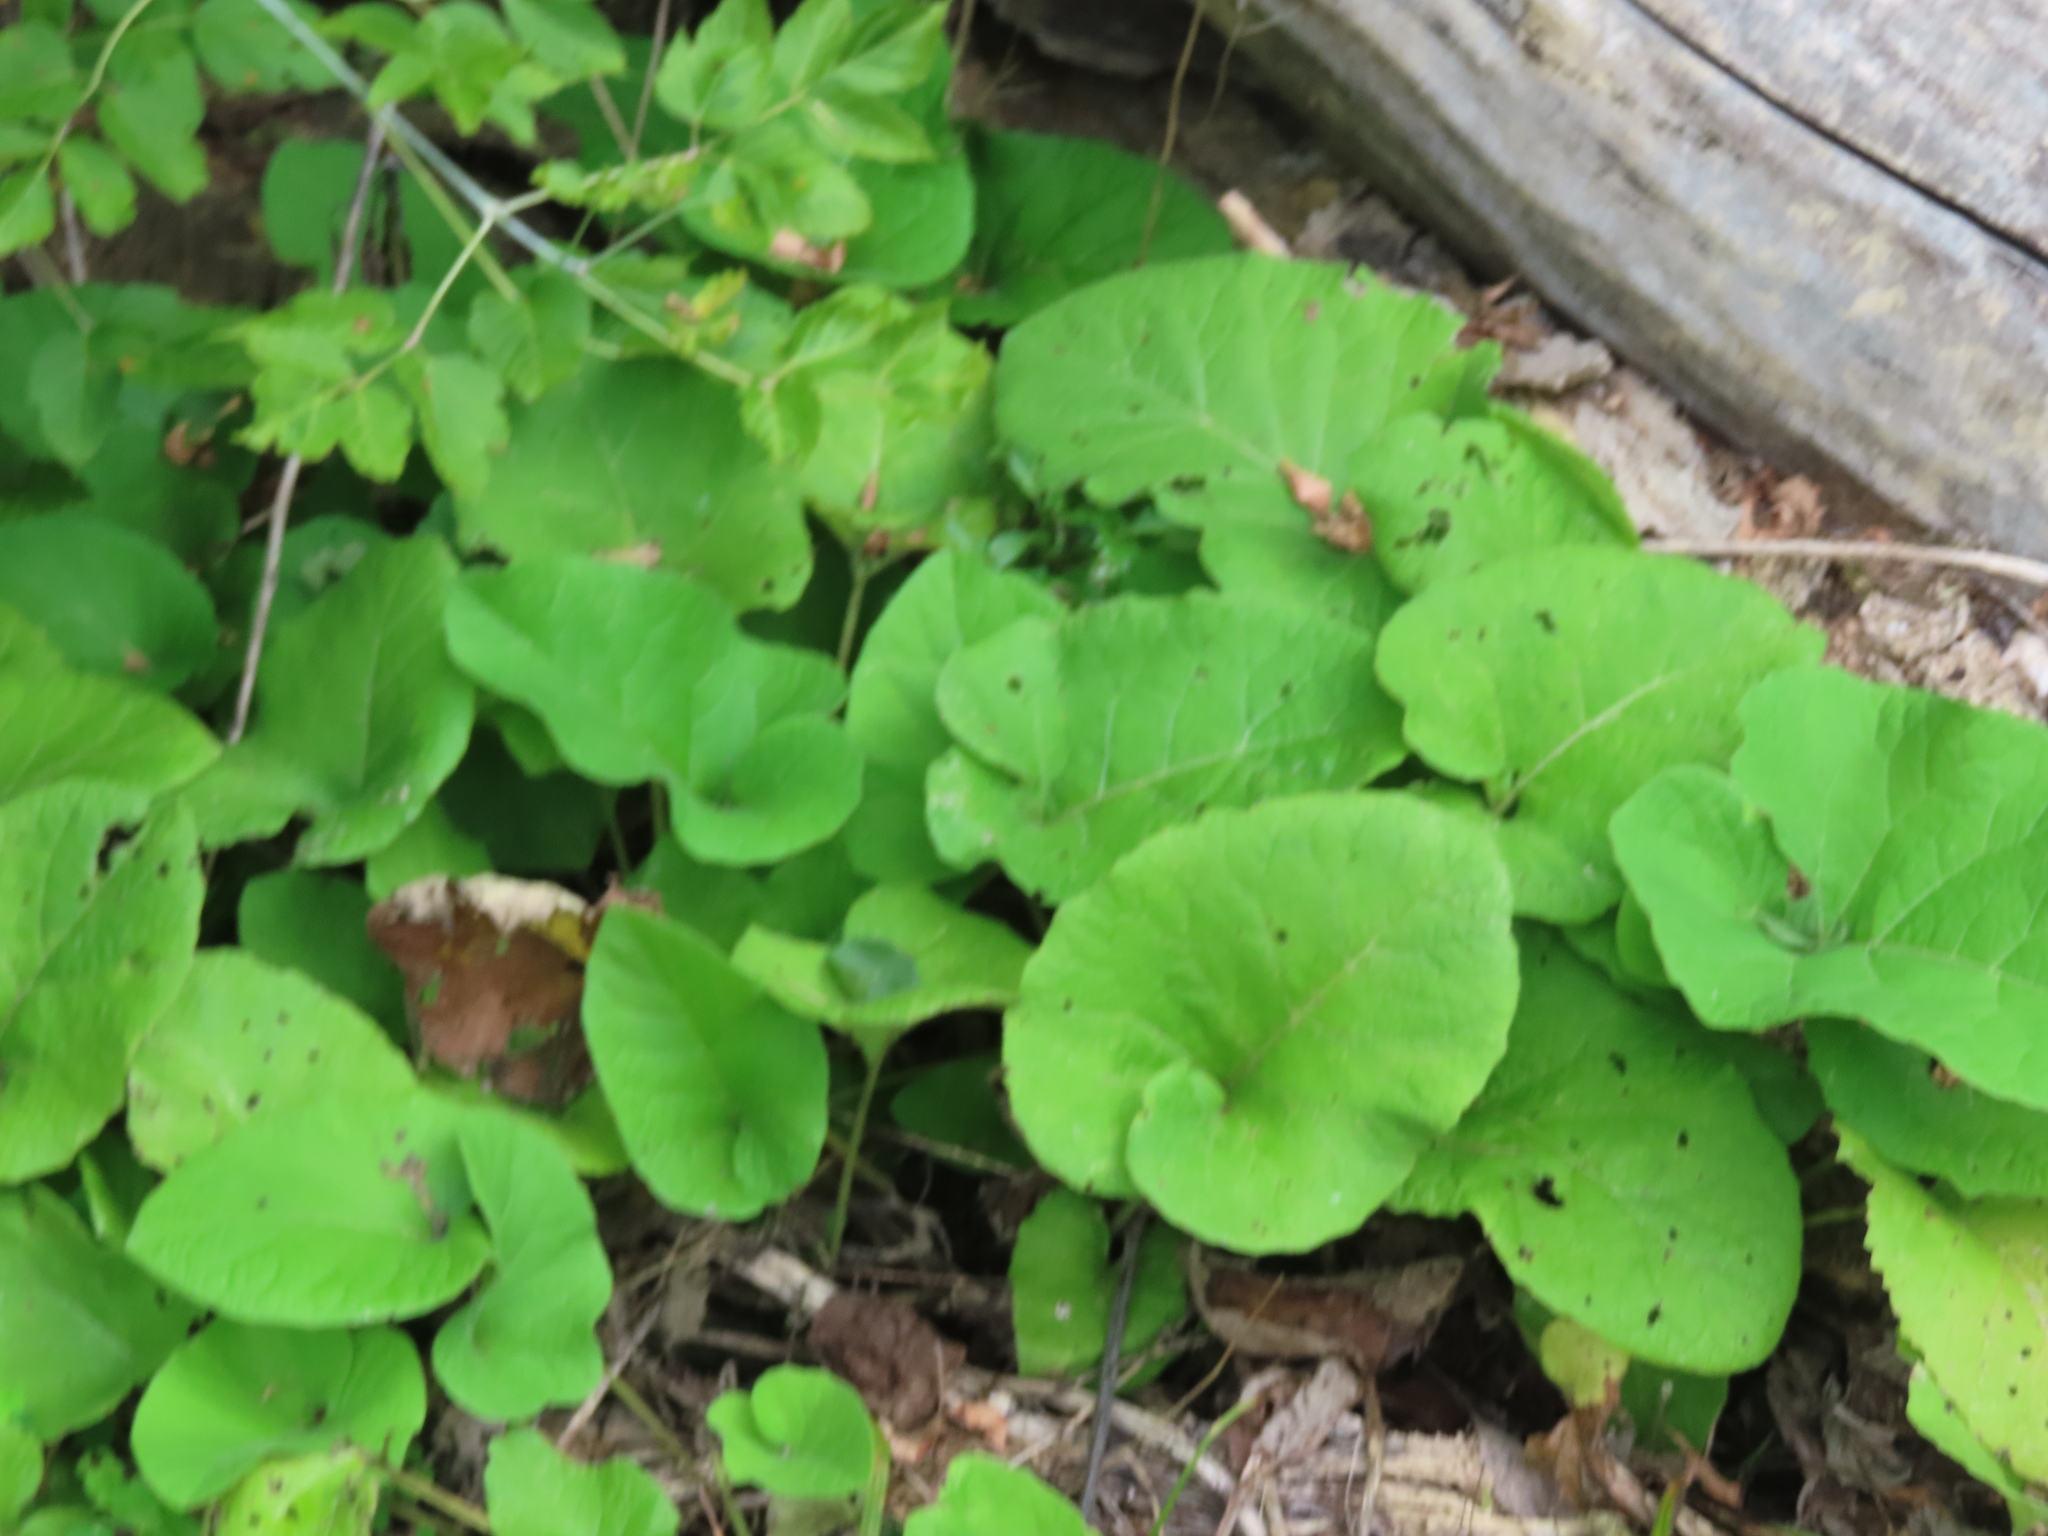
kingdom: Plantae
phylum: Tracheophyta
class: Magnoliopsida
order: Asterales
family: Asteraceae
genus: Arctium
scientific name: Arctium
